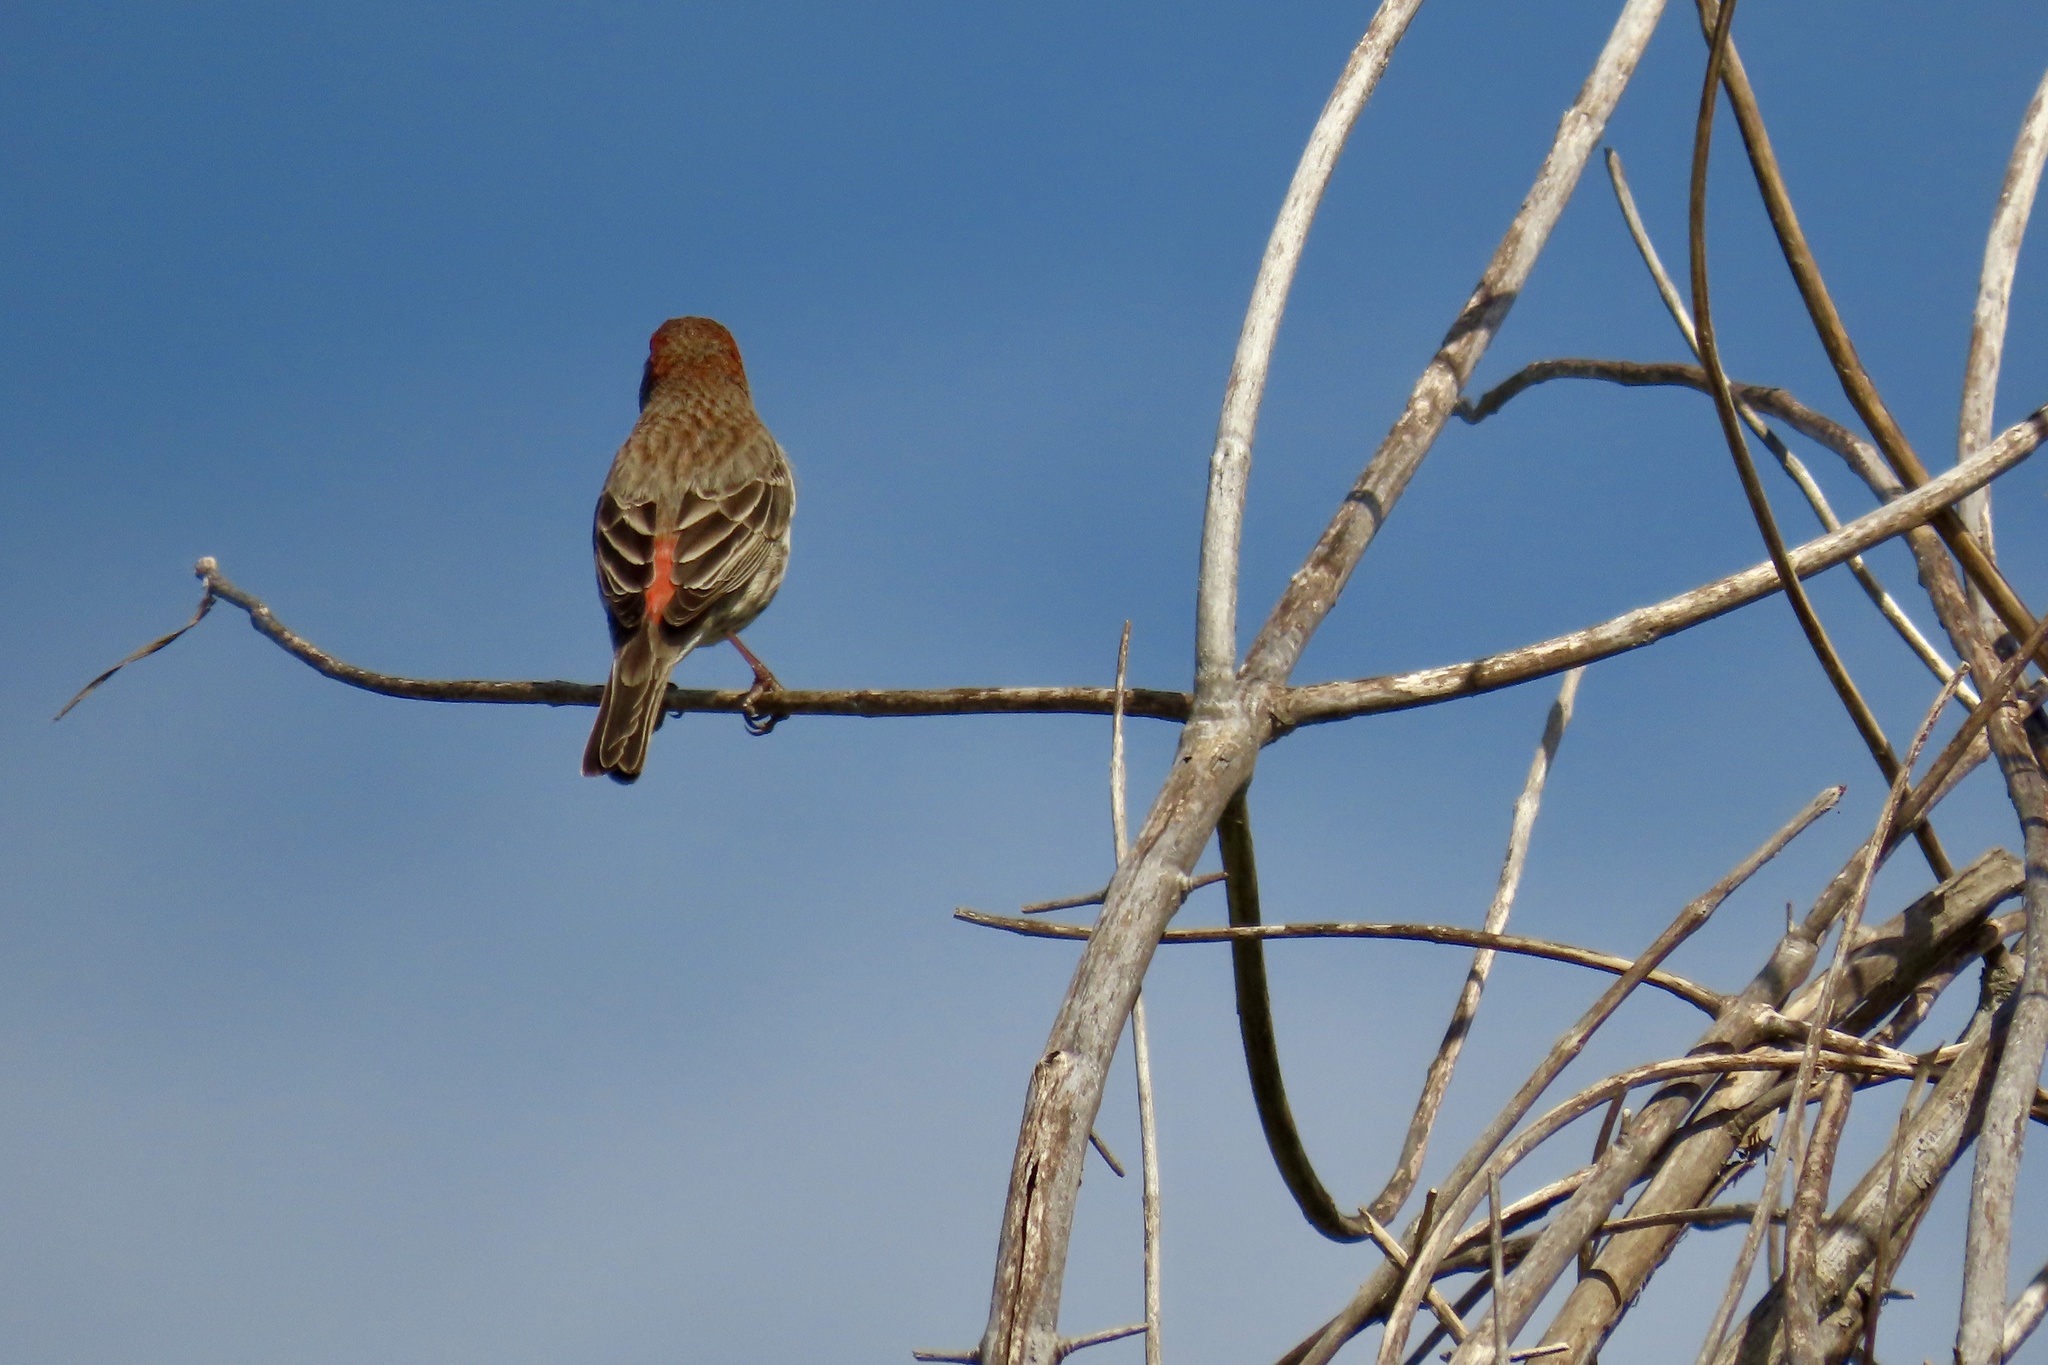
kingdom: Animalia
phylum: Chordata
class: Aves
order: Passeriformes
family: Fringillidae
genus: Haemorhous
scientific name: Haemorhous mexicanus
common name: House finch
